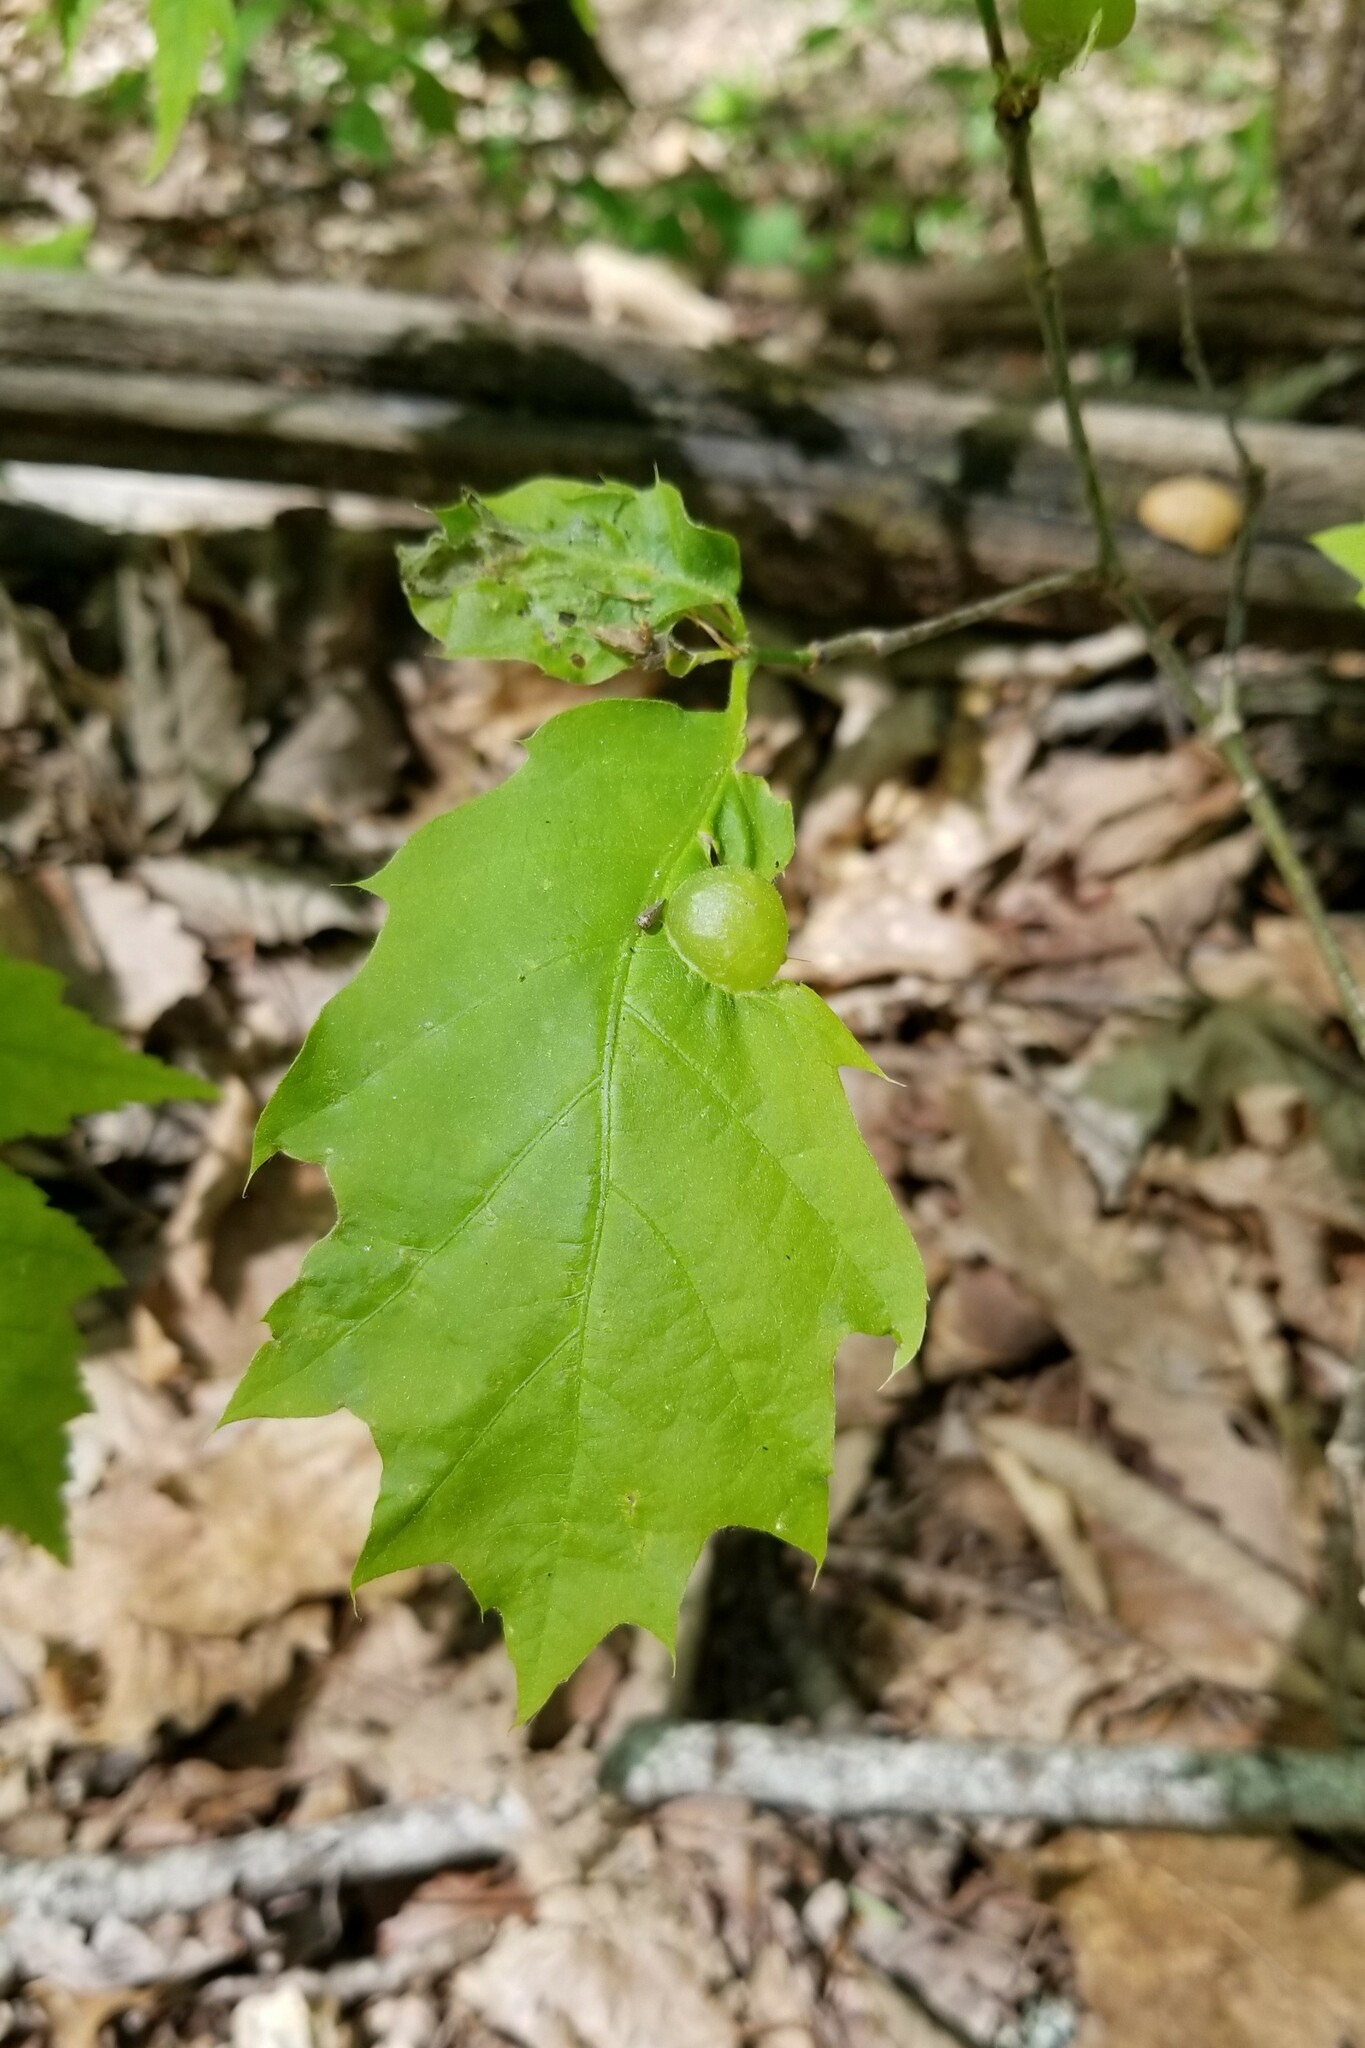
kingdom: Animalia
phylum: Arthropoda
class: Insecta
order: Hymenoptera
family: Cynipidae
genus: Dryocosmus
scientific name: Dryocosmus quercuspalustris
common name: Succulent oak gall wasp
